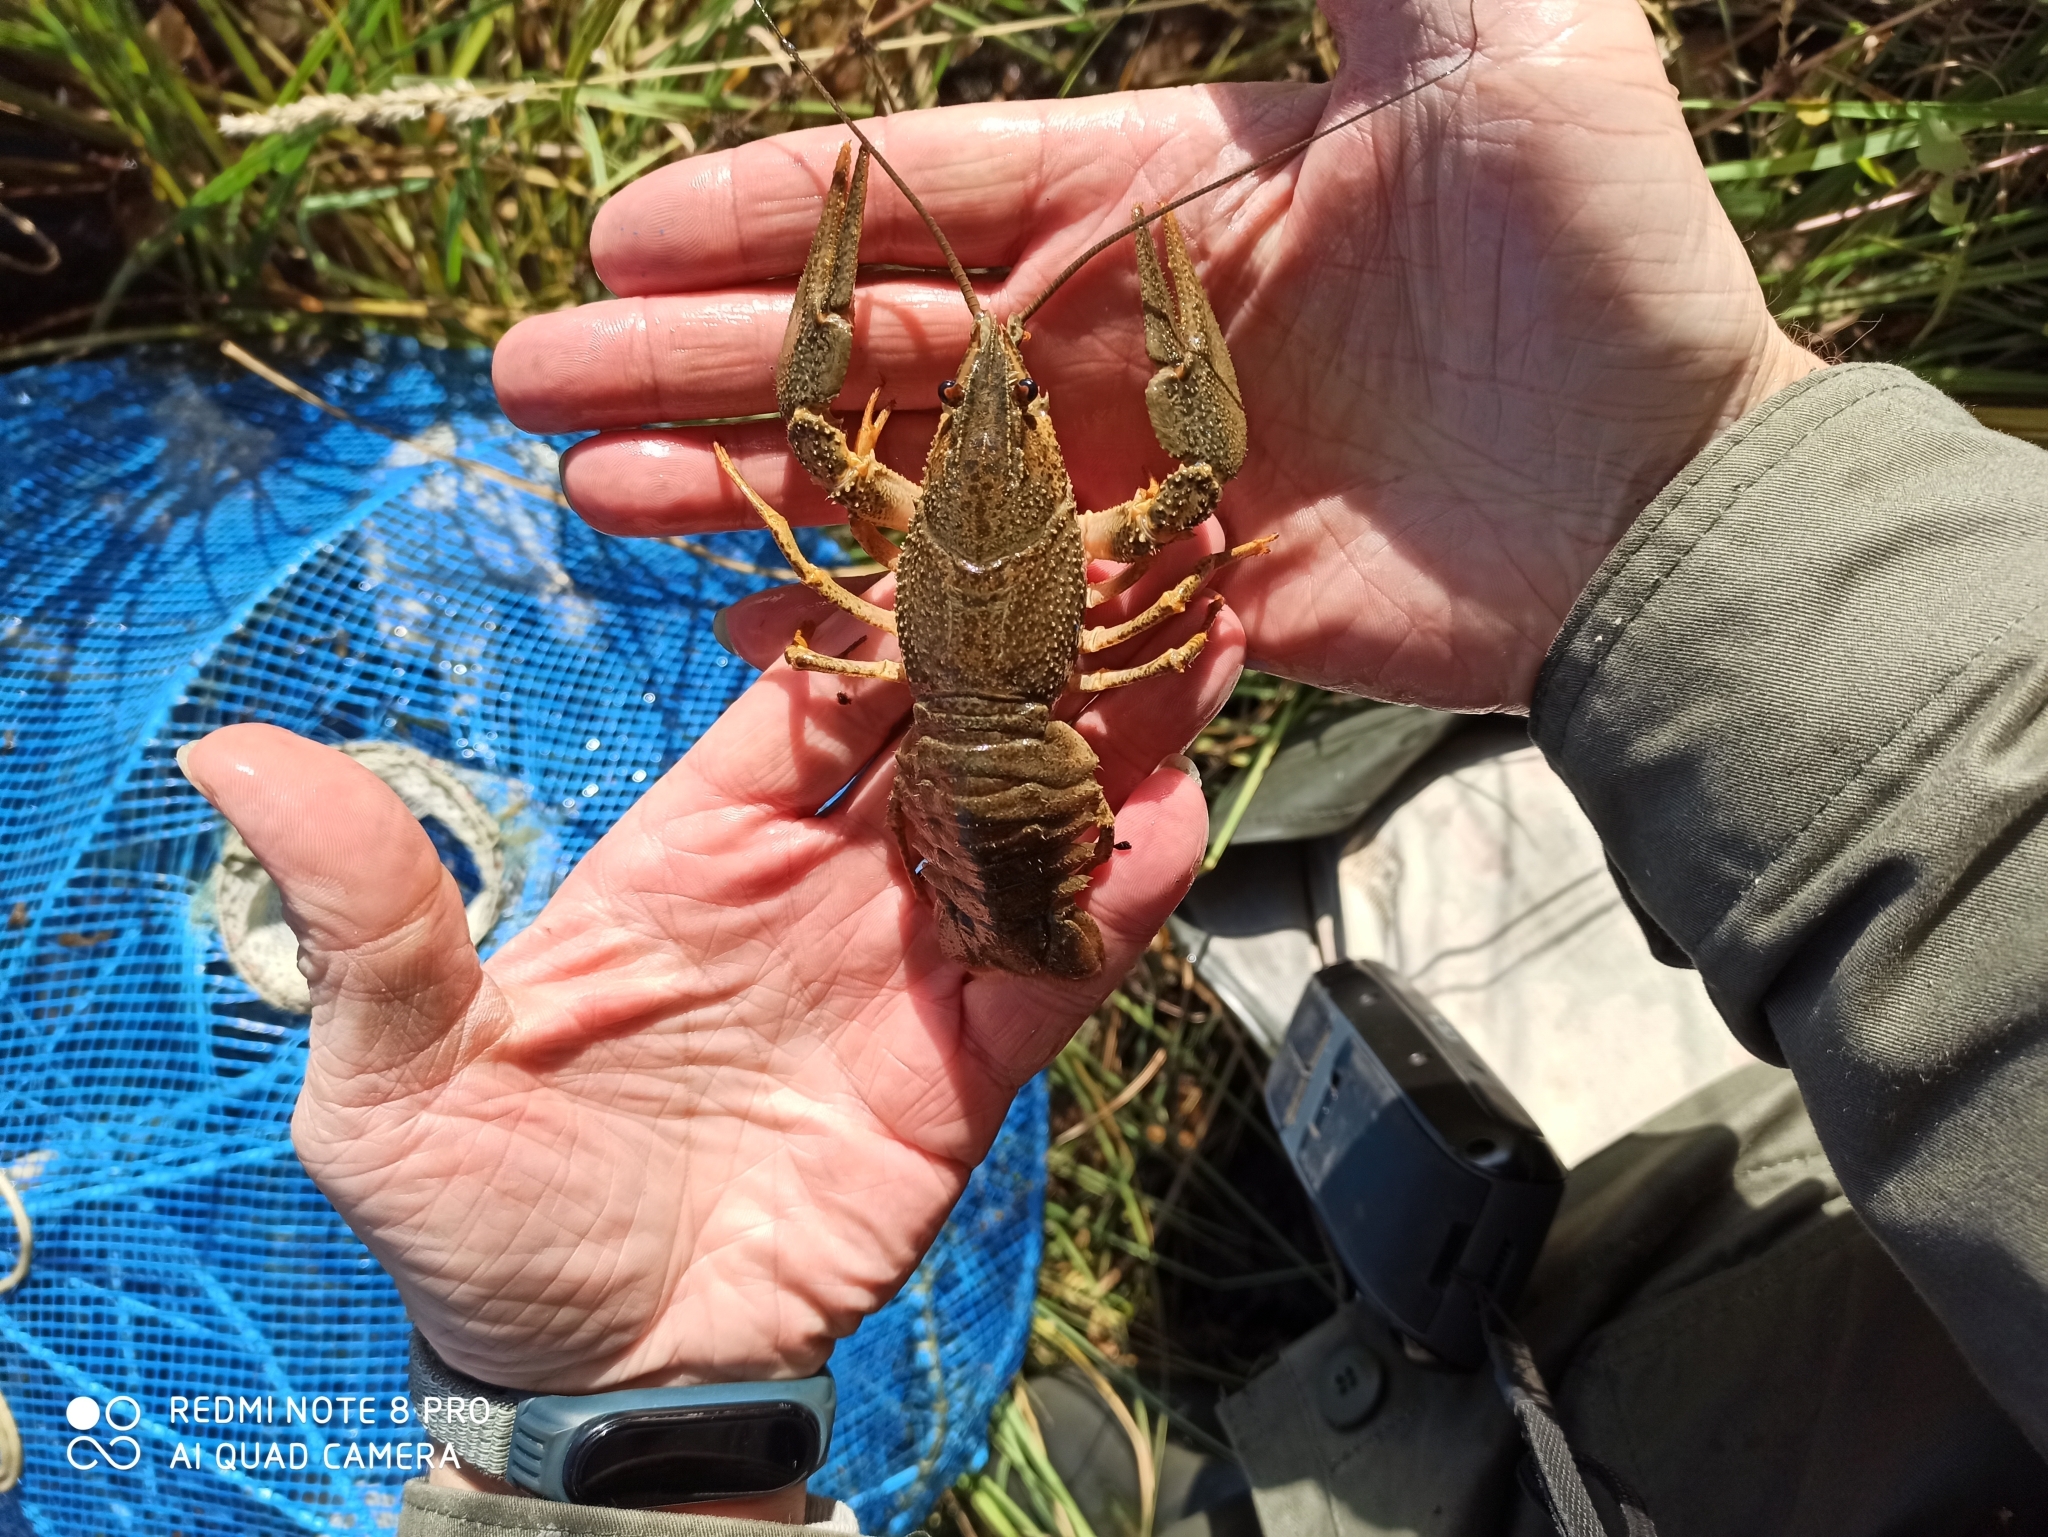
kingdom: Animalia
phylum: Arthropoda
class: Malacostraca
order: Decapoda
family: Astacidae
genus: Pontastacus
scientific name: Pontastacus leptodactylus
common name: Danube crayfish
